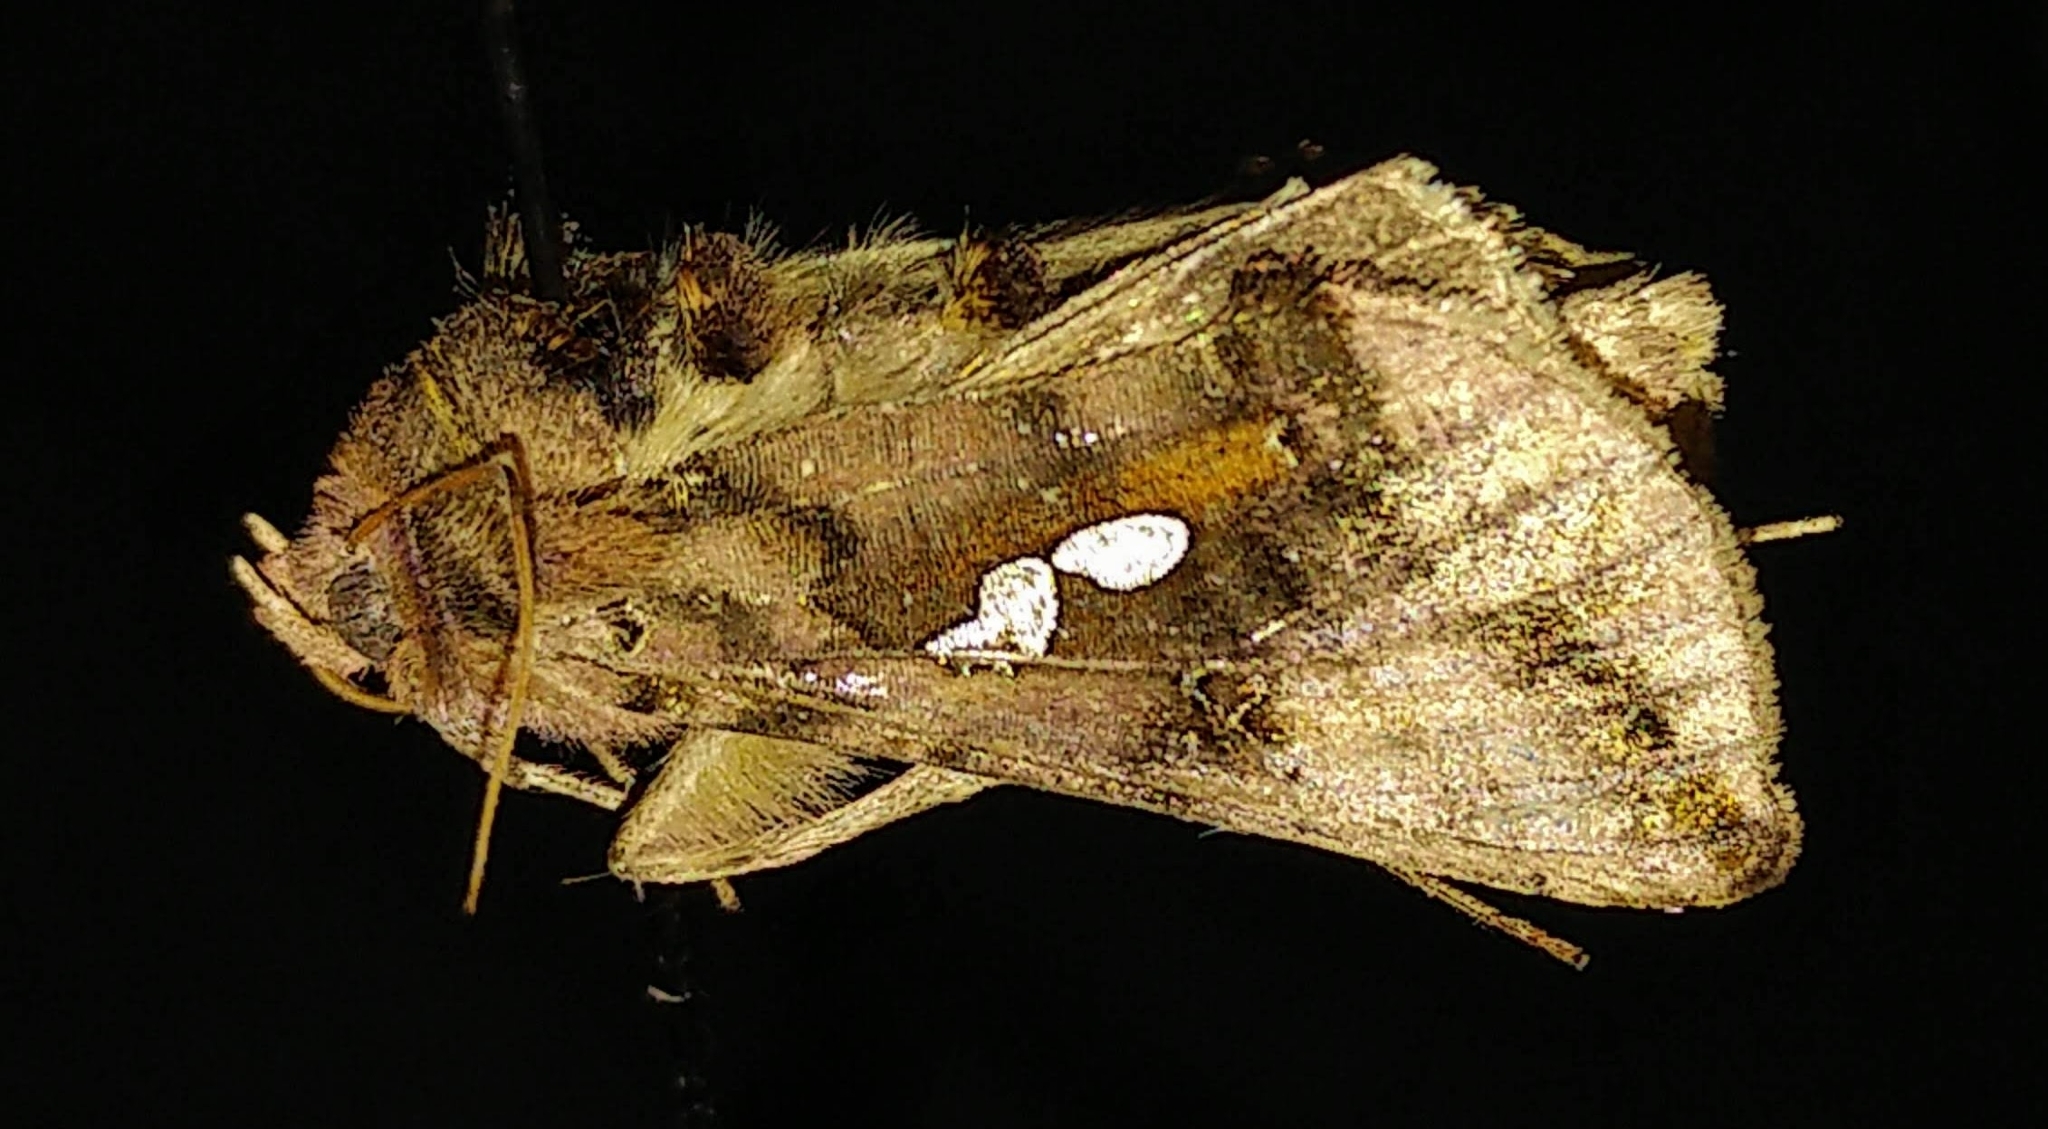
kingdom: Animalia
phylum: Arthropoda
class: Insecta
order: Lepidoptera
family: Noctuidae
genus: Autographa
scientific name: Autographa bimaculata
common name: Double-spotted spangle
